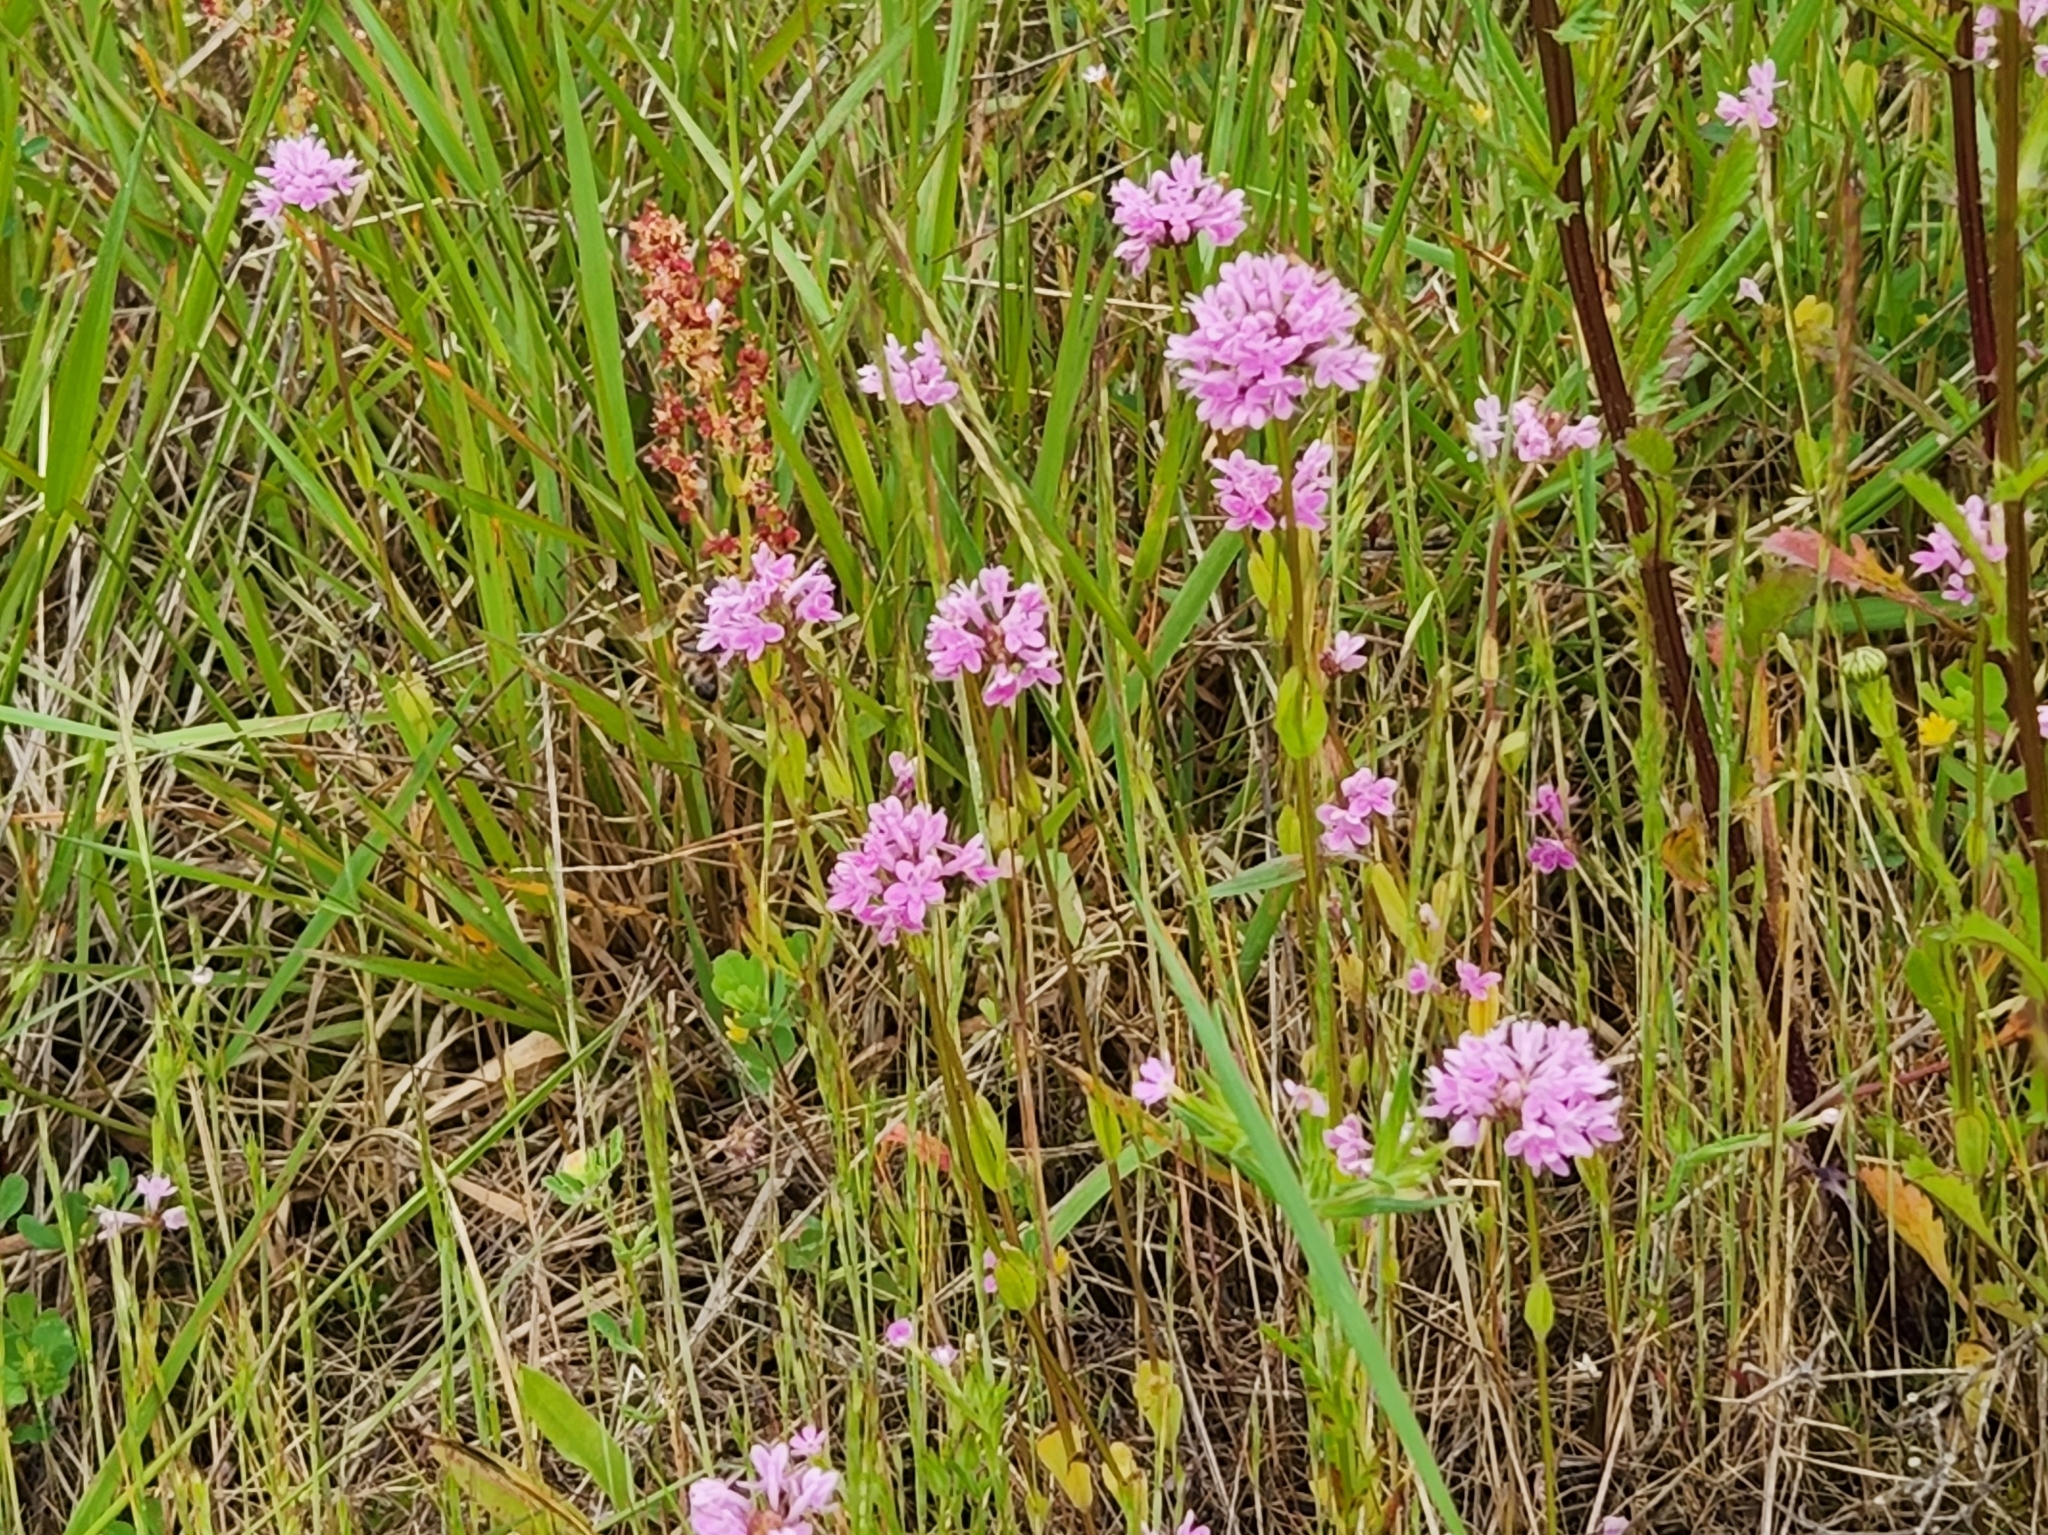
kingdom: Plantae
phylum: Tracheophyta
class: Magnoliopsida
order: Dipsacales
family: Caprifoliaceae
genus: Plectritis
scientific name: Plectritis congesta
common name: Pink plectritis
